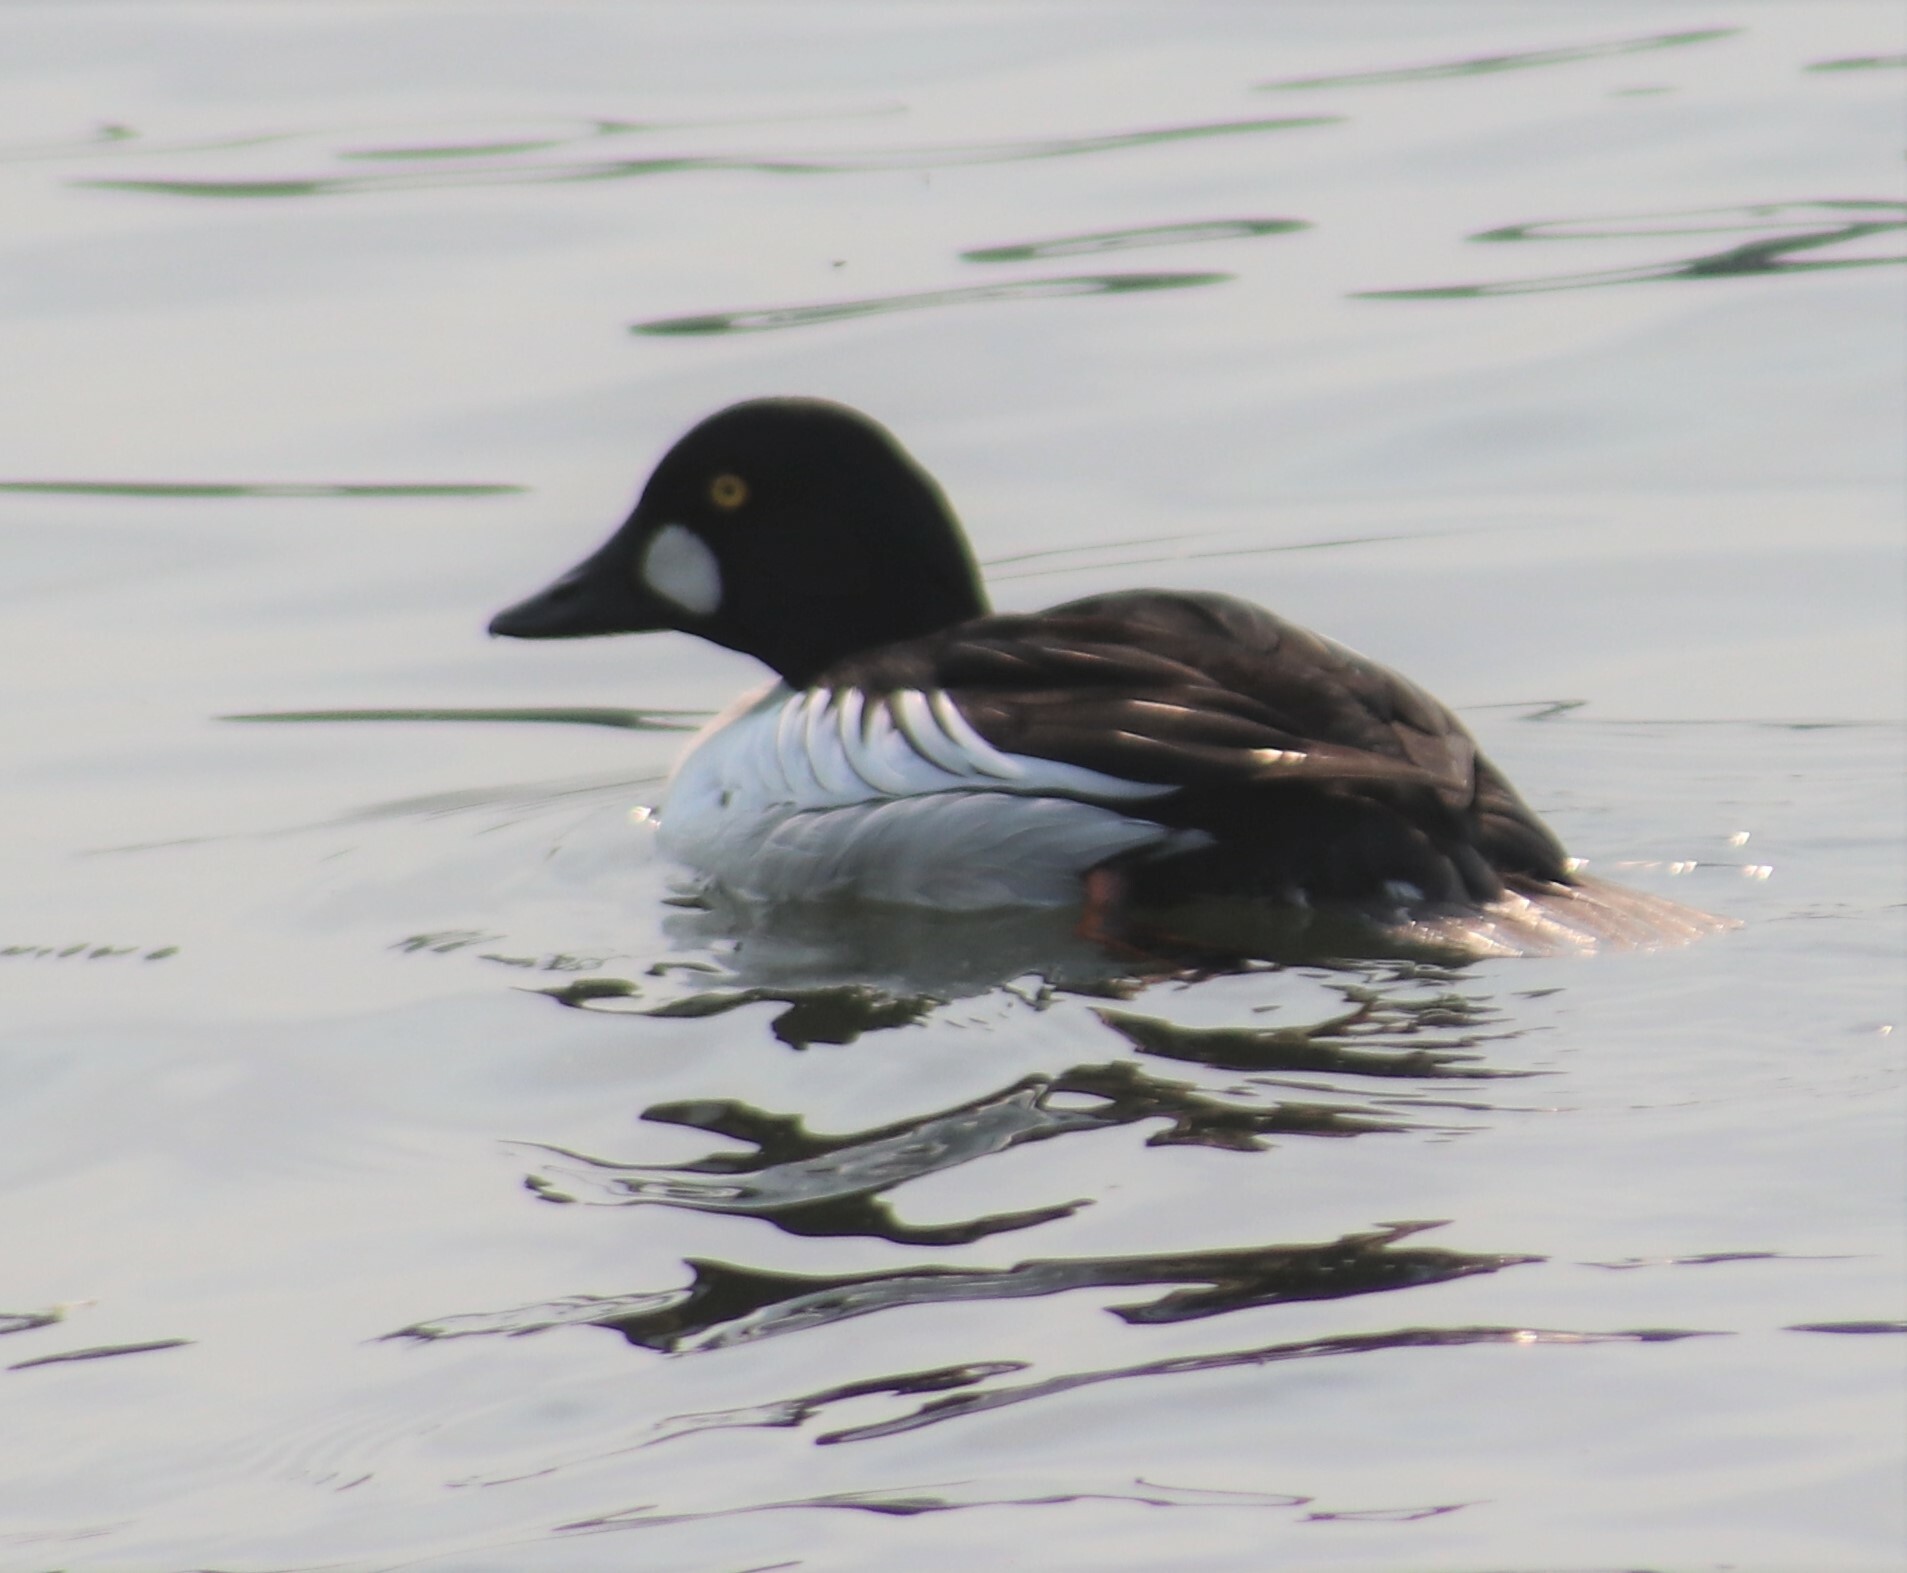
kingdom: Animalia
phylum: Chordata
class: Aves
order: Anseriformes
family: Anatidae
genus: Bucephala
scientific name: Bucephala clangula
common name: Common goldeneye
